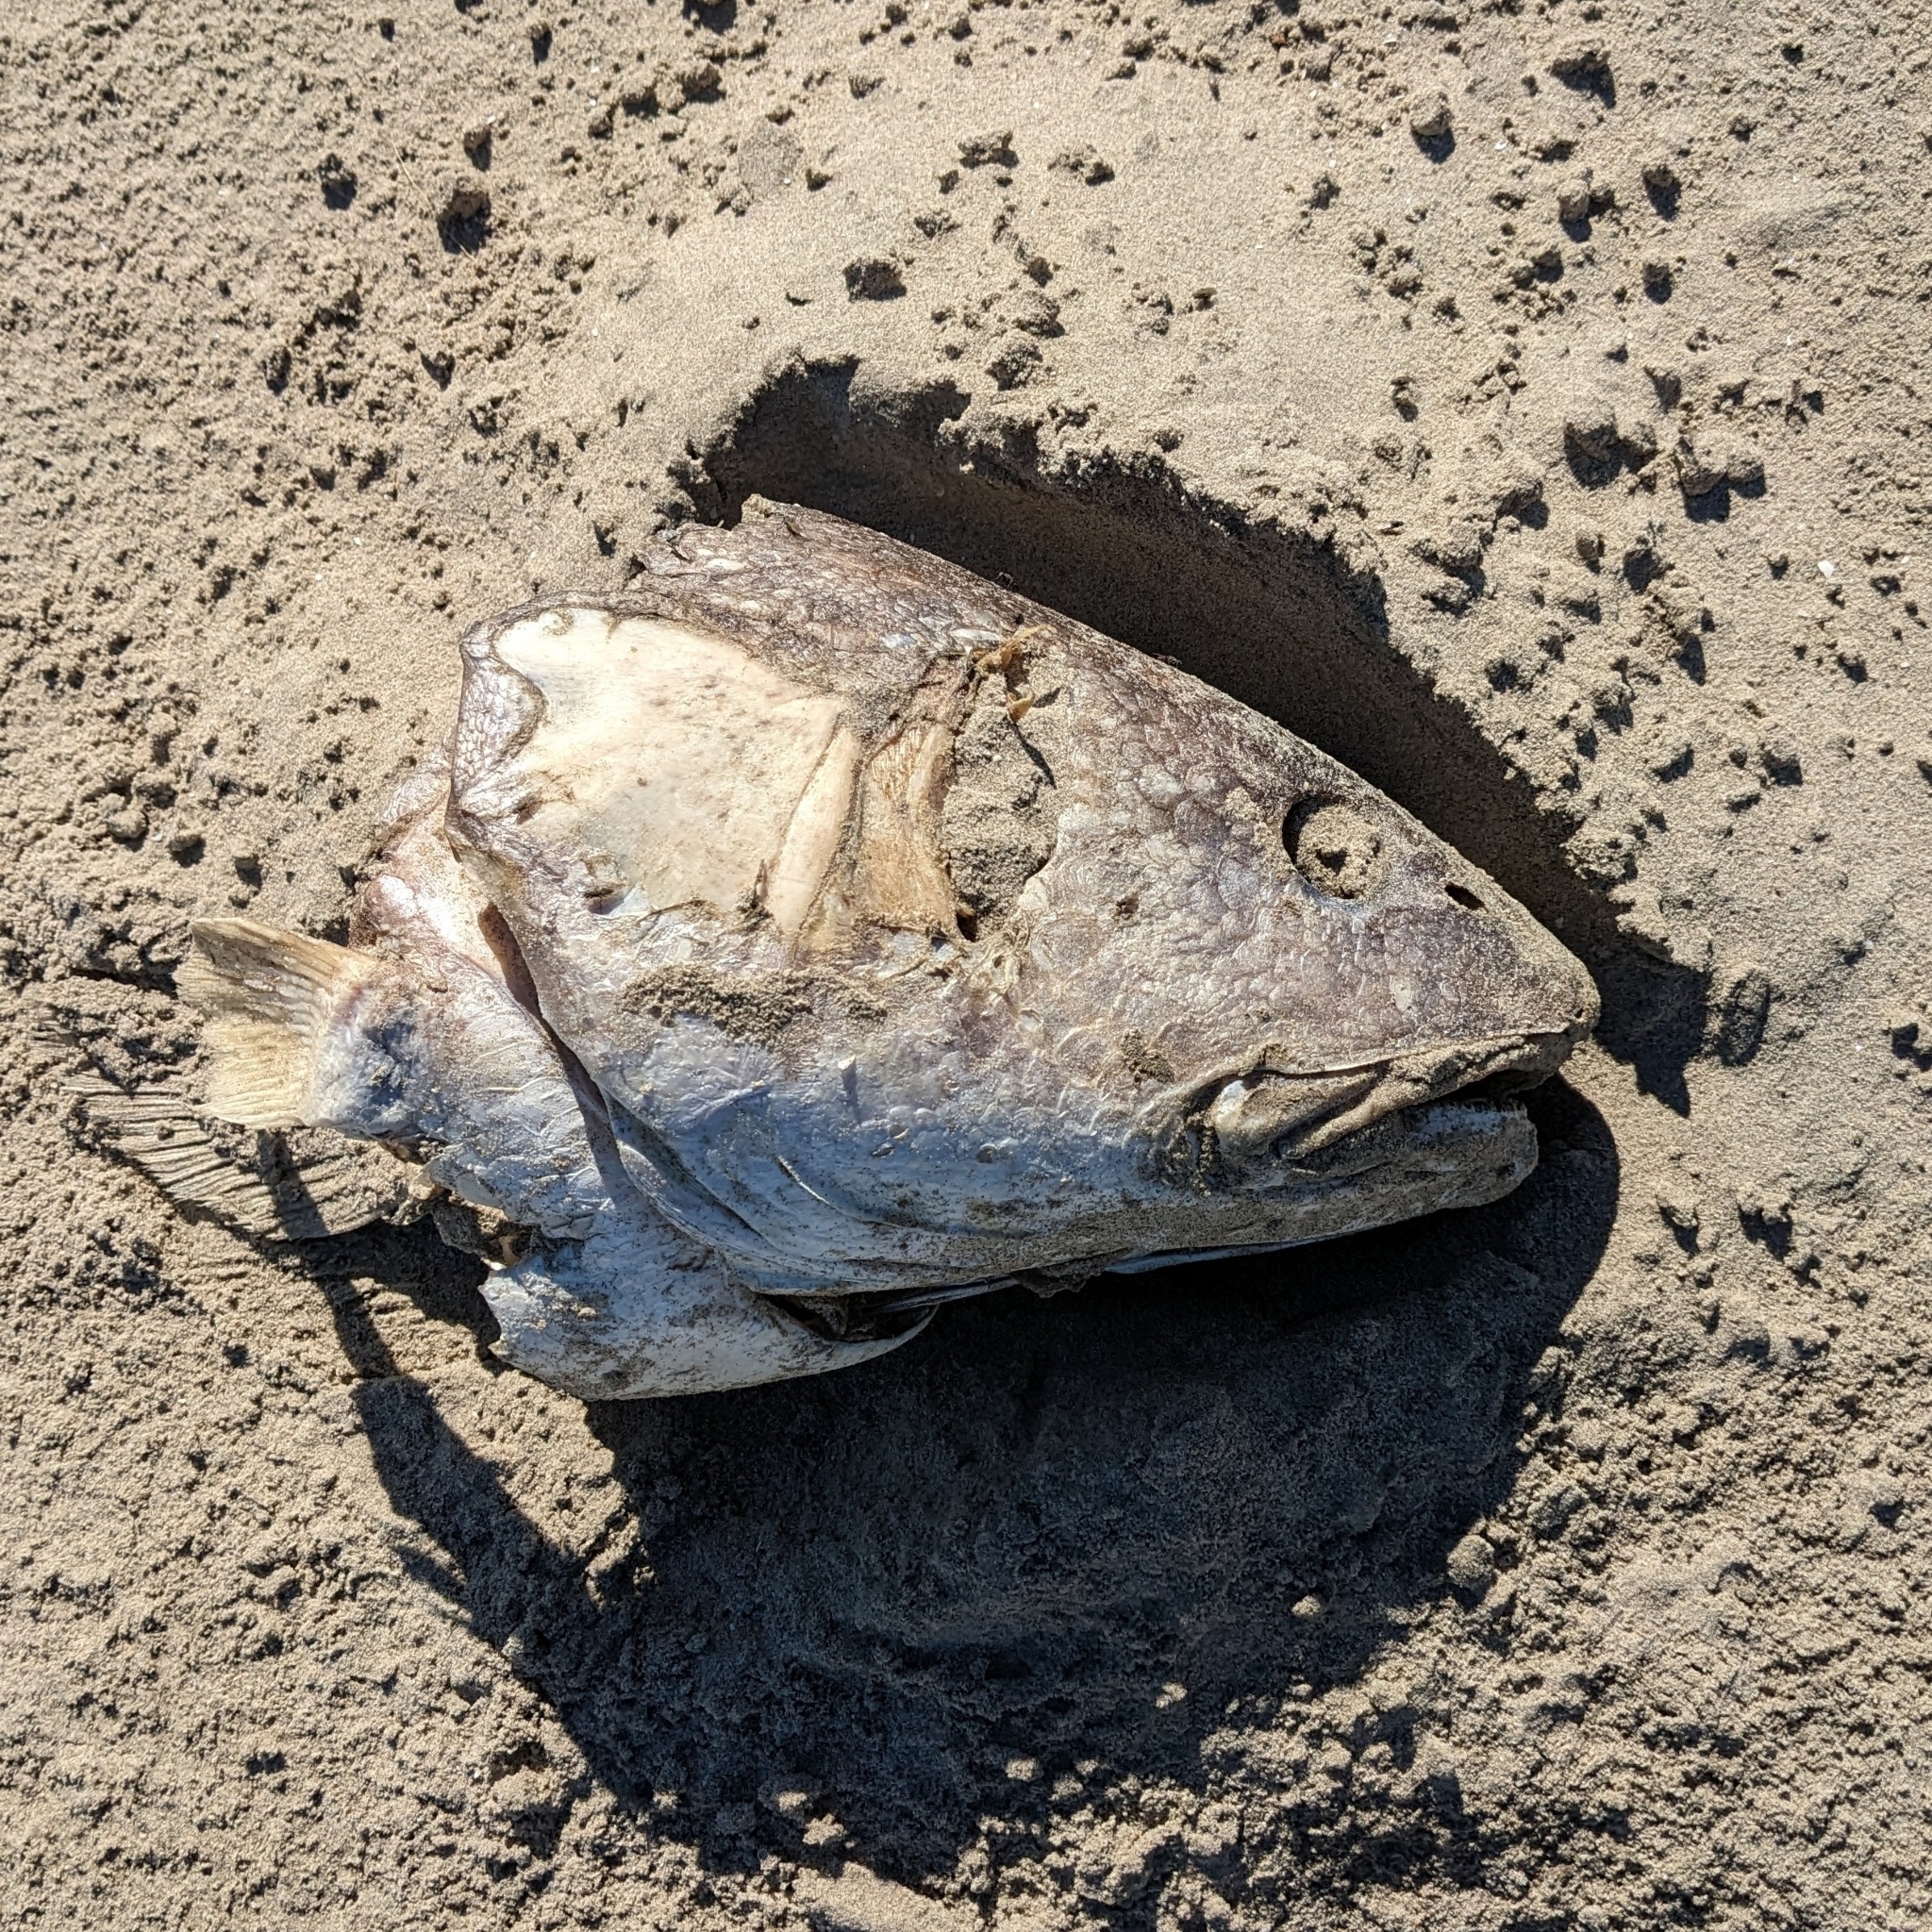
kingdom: Animalia
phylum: Chordata
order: Perciformes
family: Sciaenidae
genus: Sciaenops
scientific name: Sciaenops ocellatus
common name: Red drum
